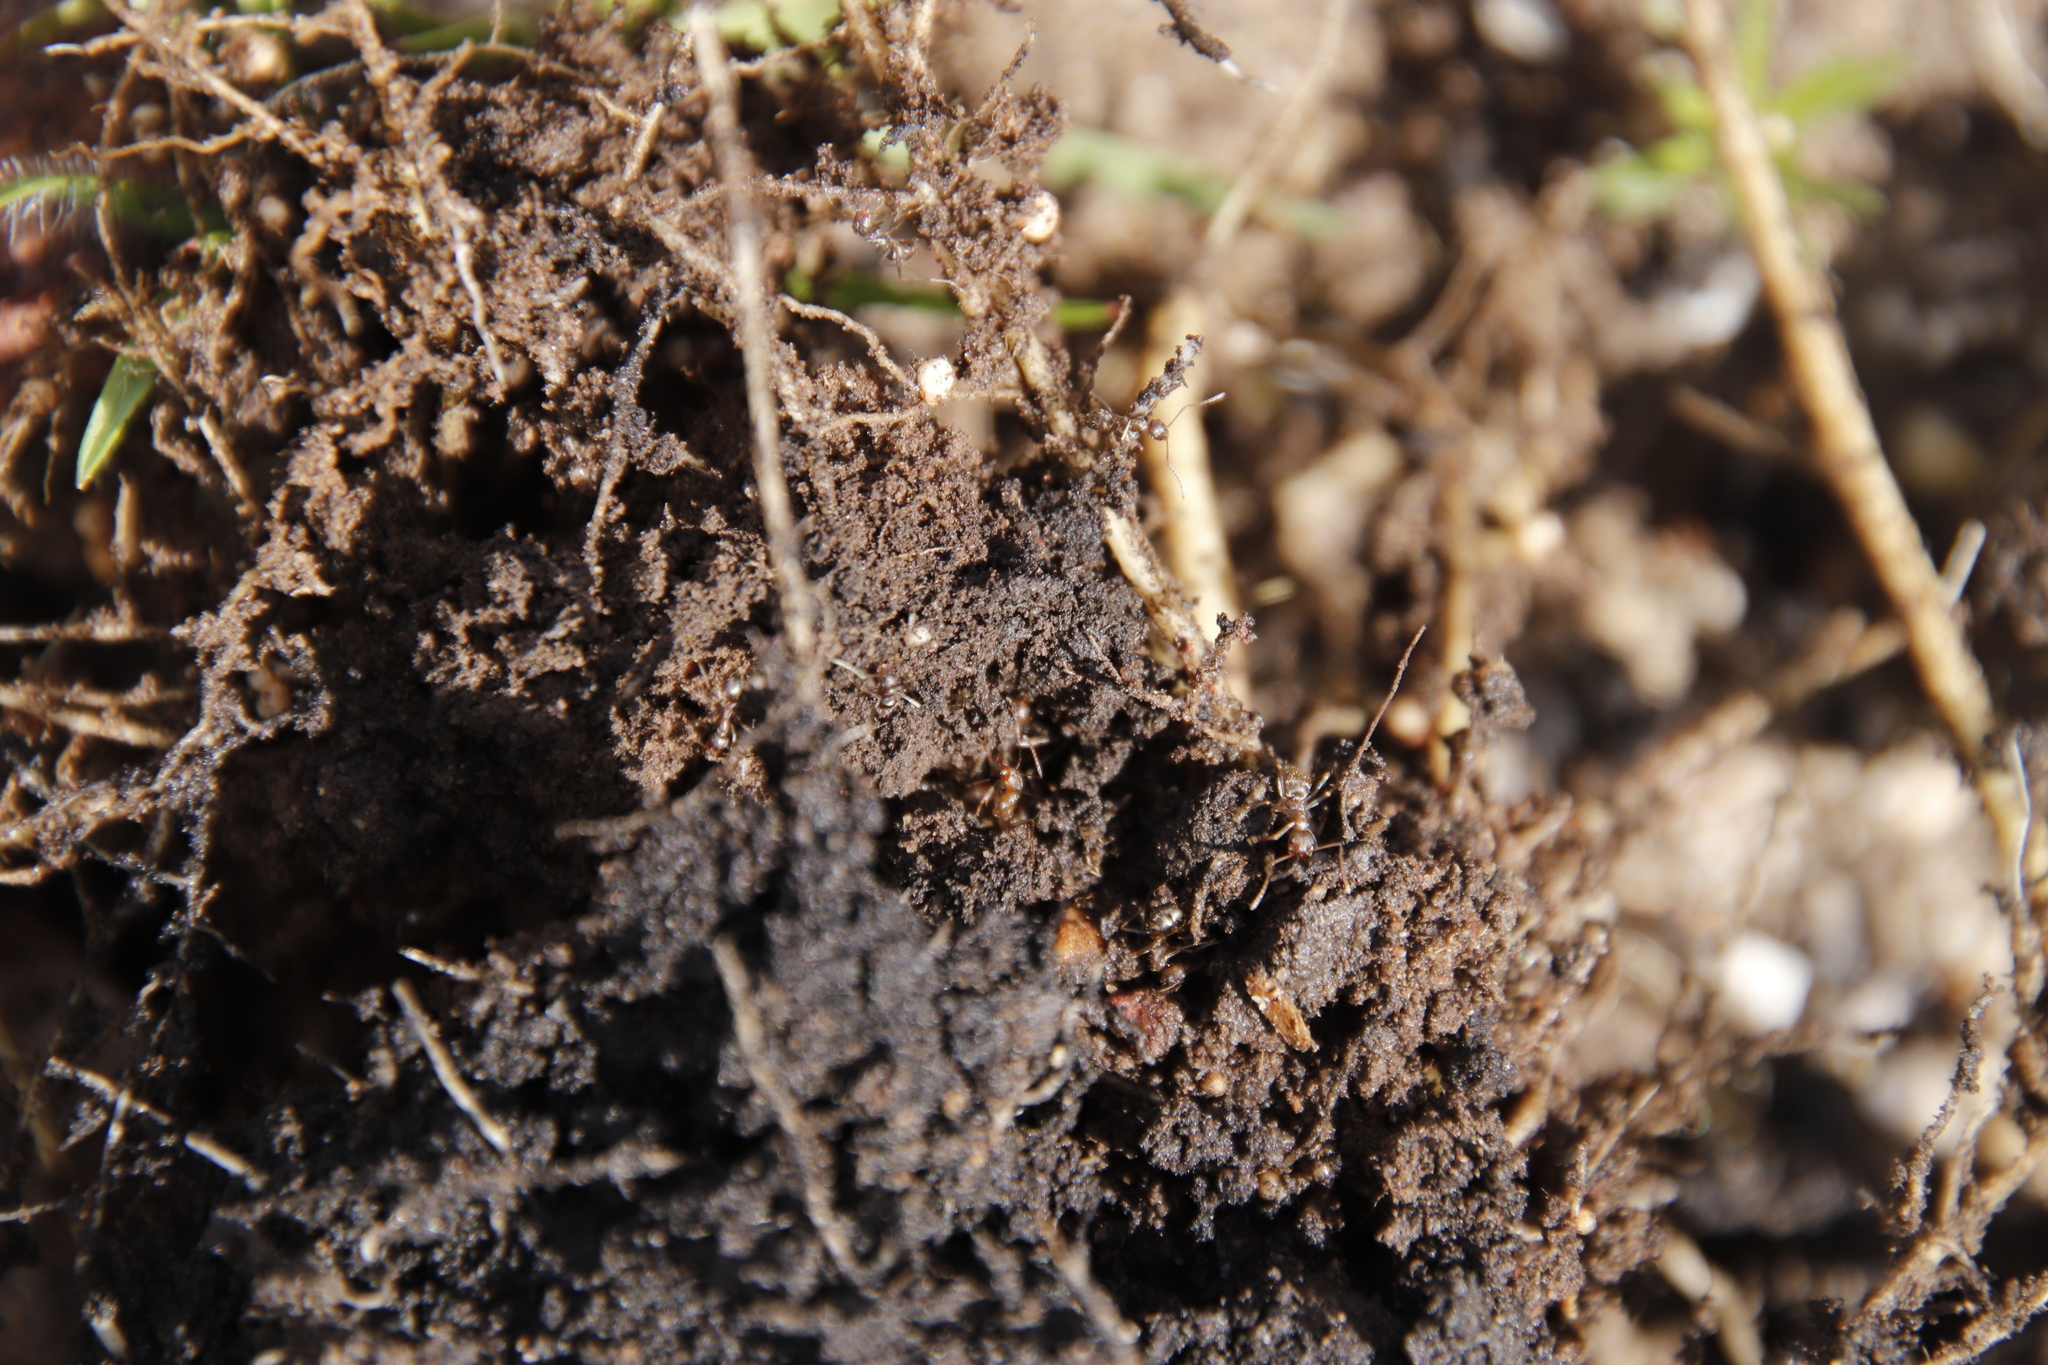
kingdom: Animalia
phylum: Arthropoda
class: Insecta
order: Hymenoptera
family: Formicidae
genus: Linepithema
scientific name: Linepithema humile
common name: Argentine ant
